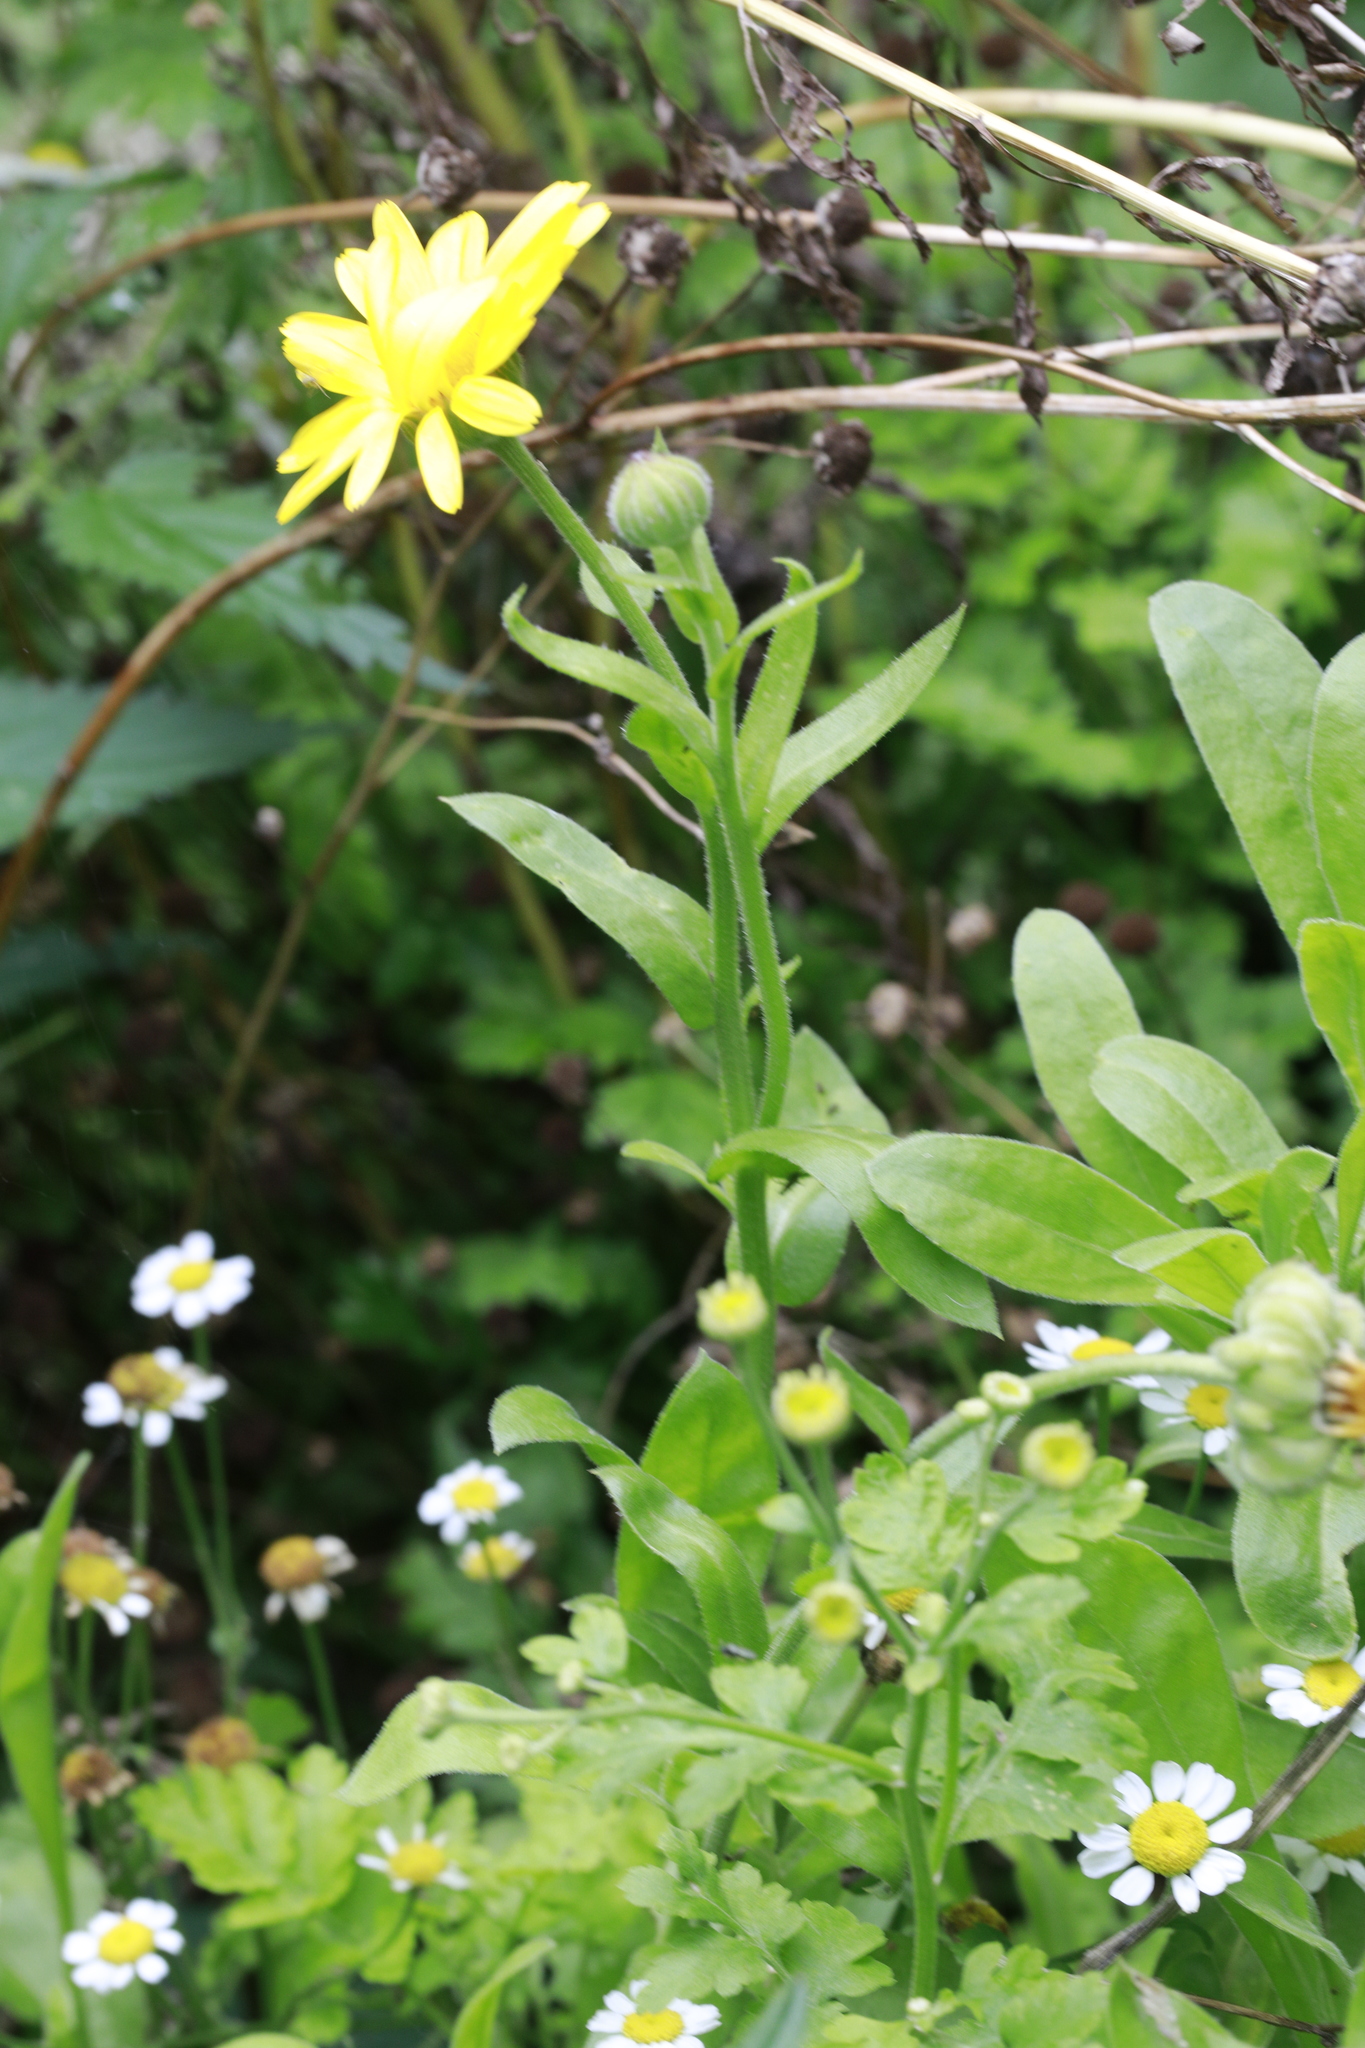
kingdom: Plantae
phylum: Tracheophyta
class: Magnoliopsida
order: Asterales
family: Asteraceae
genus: Calendula
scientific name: Calendula officinalis
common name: Pot marigold
